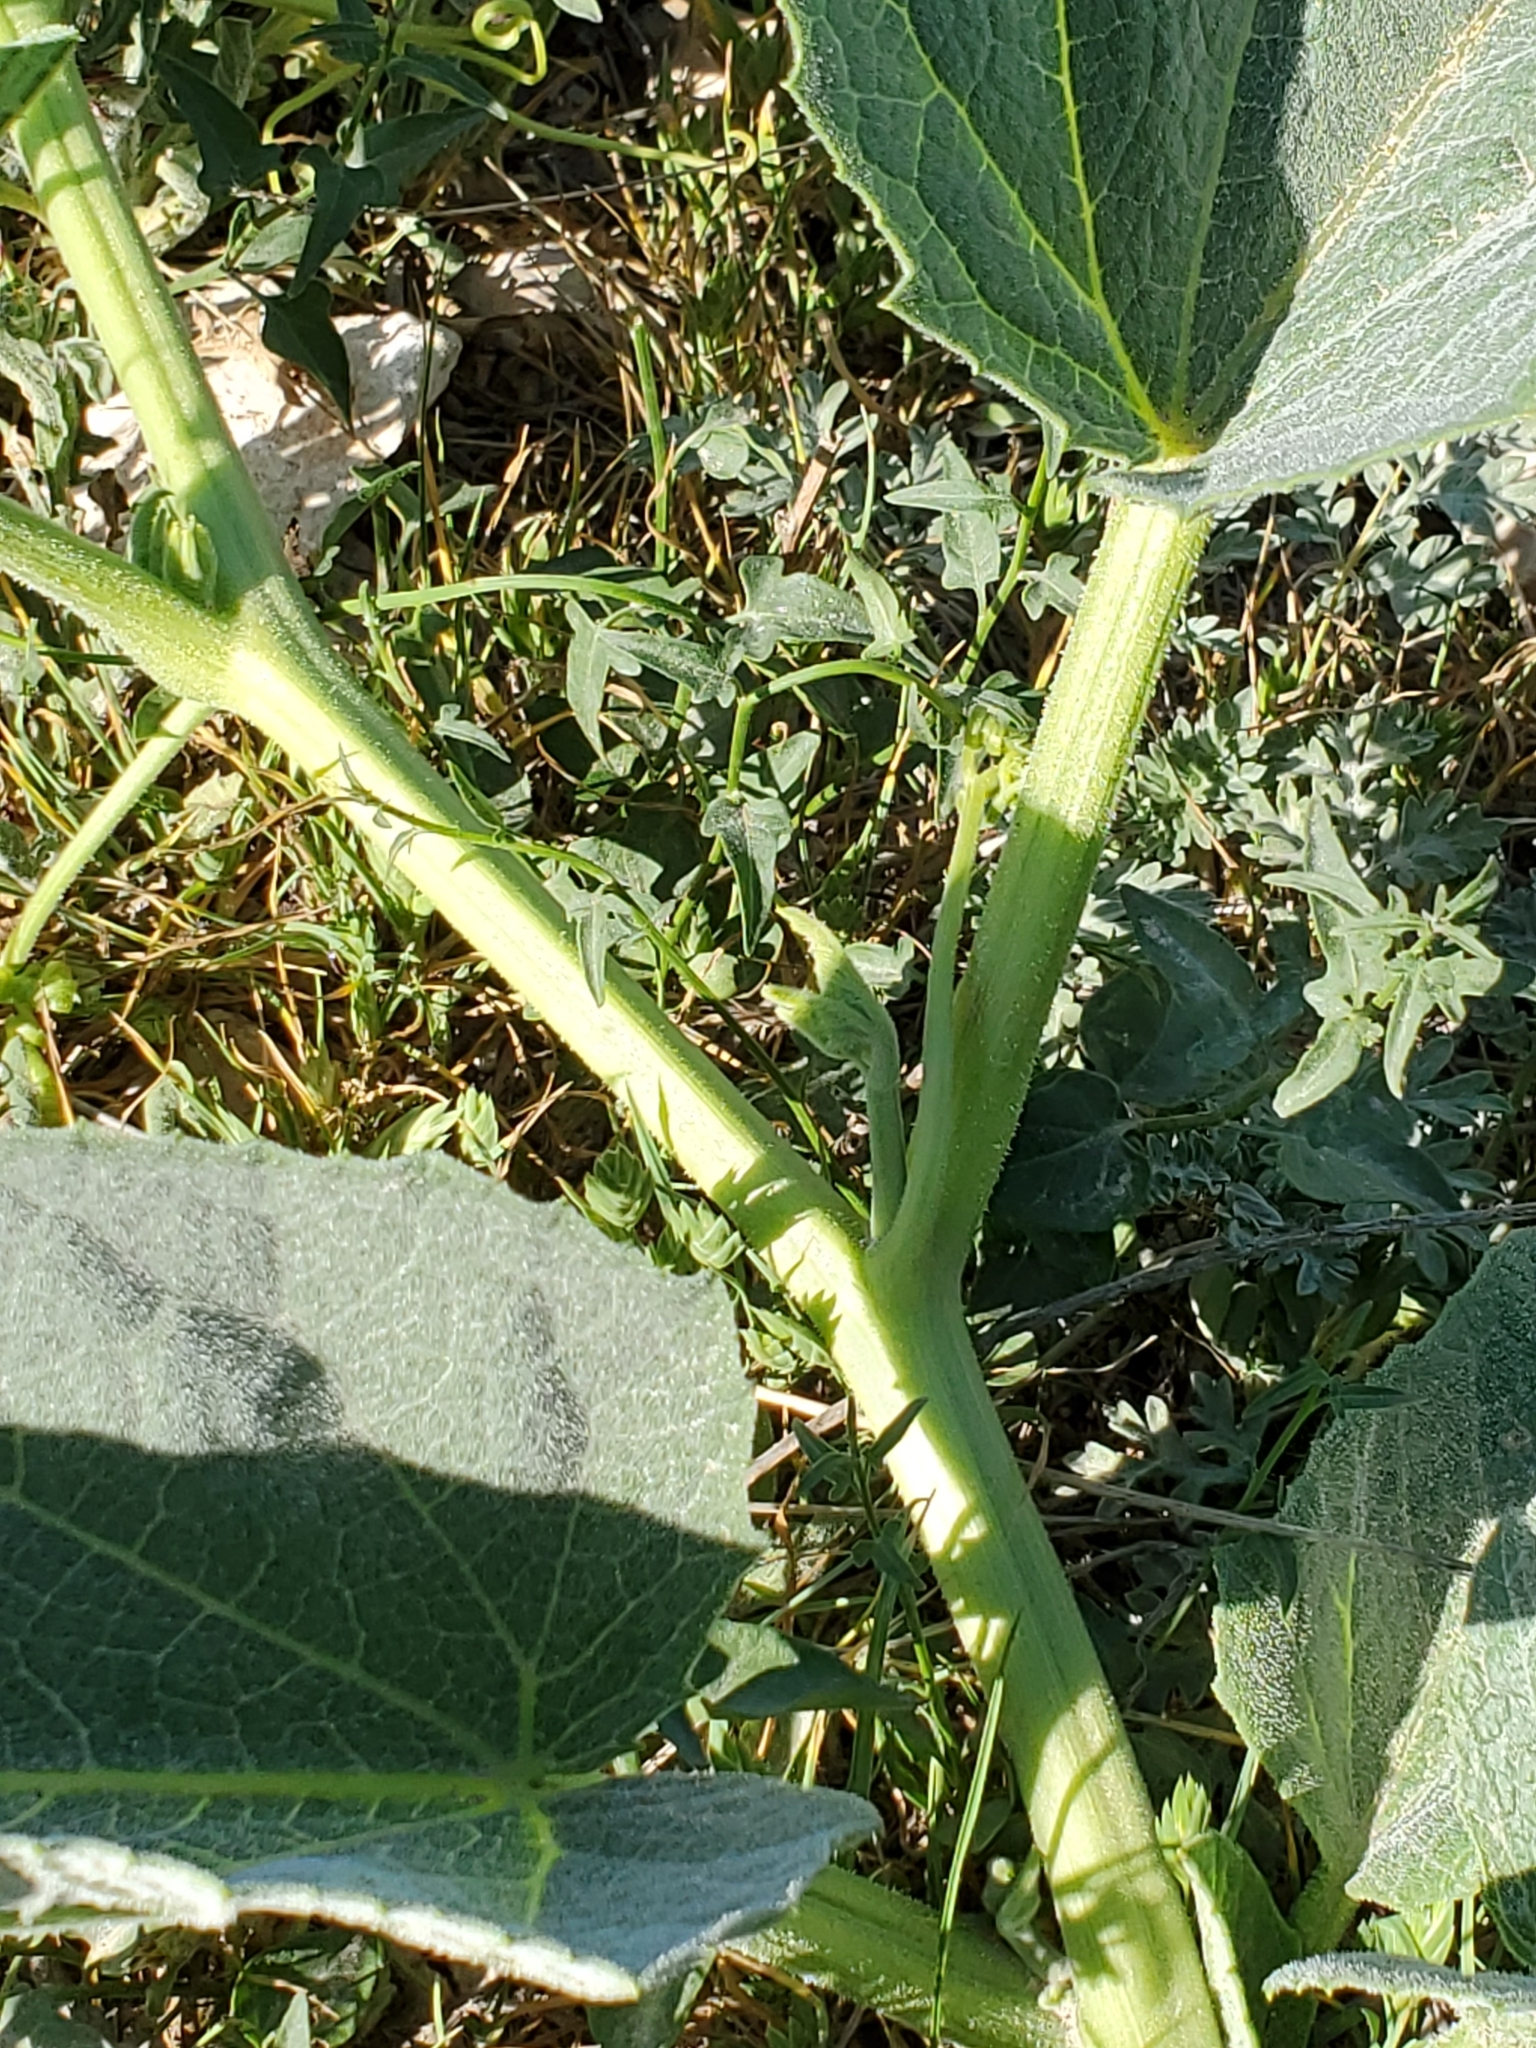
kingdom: Plantae
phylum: Tracheophyta
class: Magnoliopsida
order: Cucurbitales
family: Cucurbitaceae
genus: Cucurbita
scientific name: Cucurbita foetidissima
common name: Buffalo gourd
